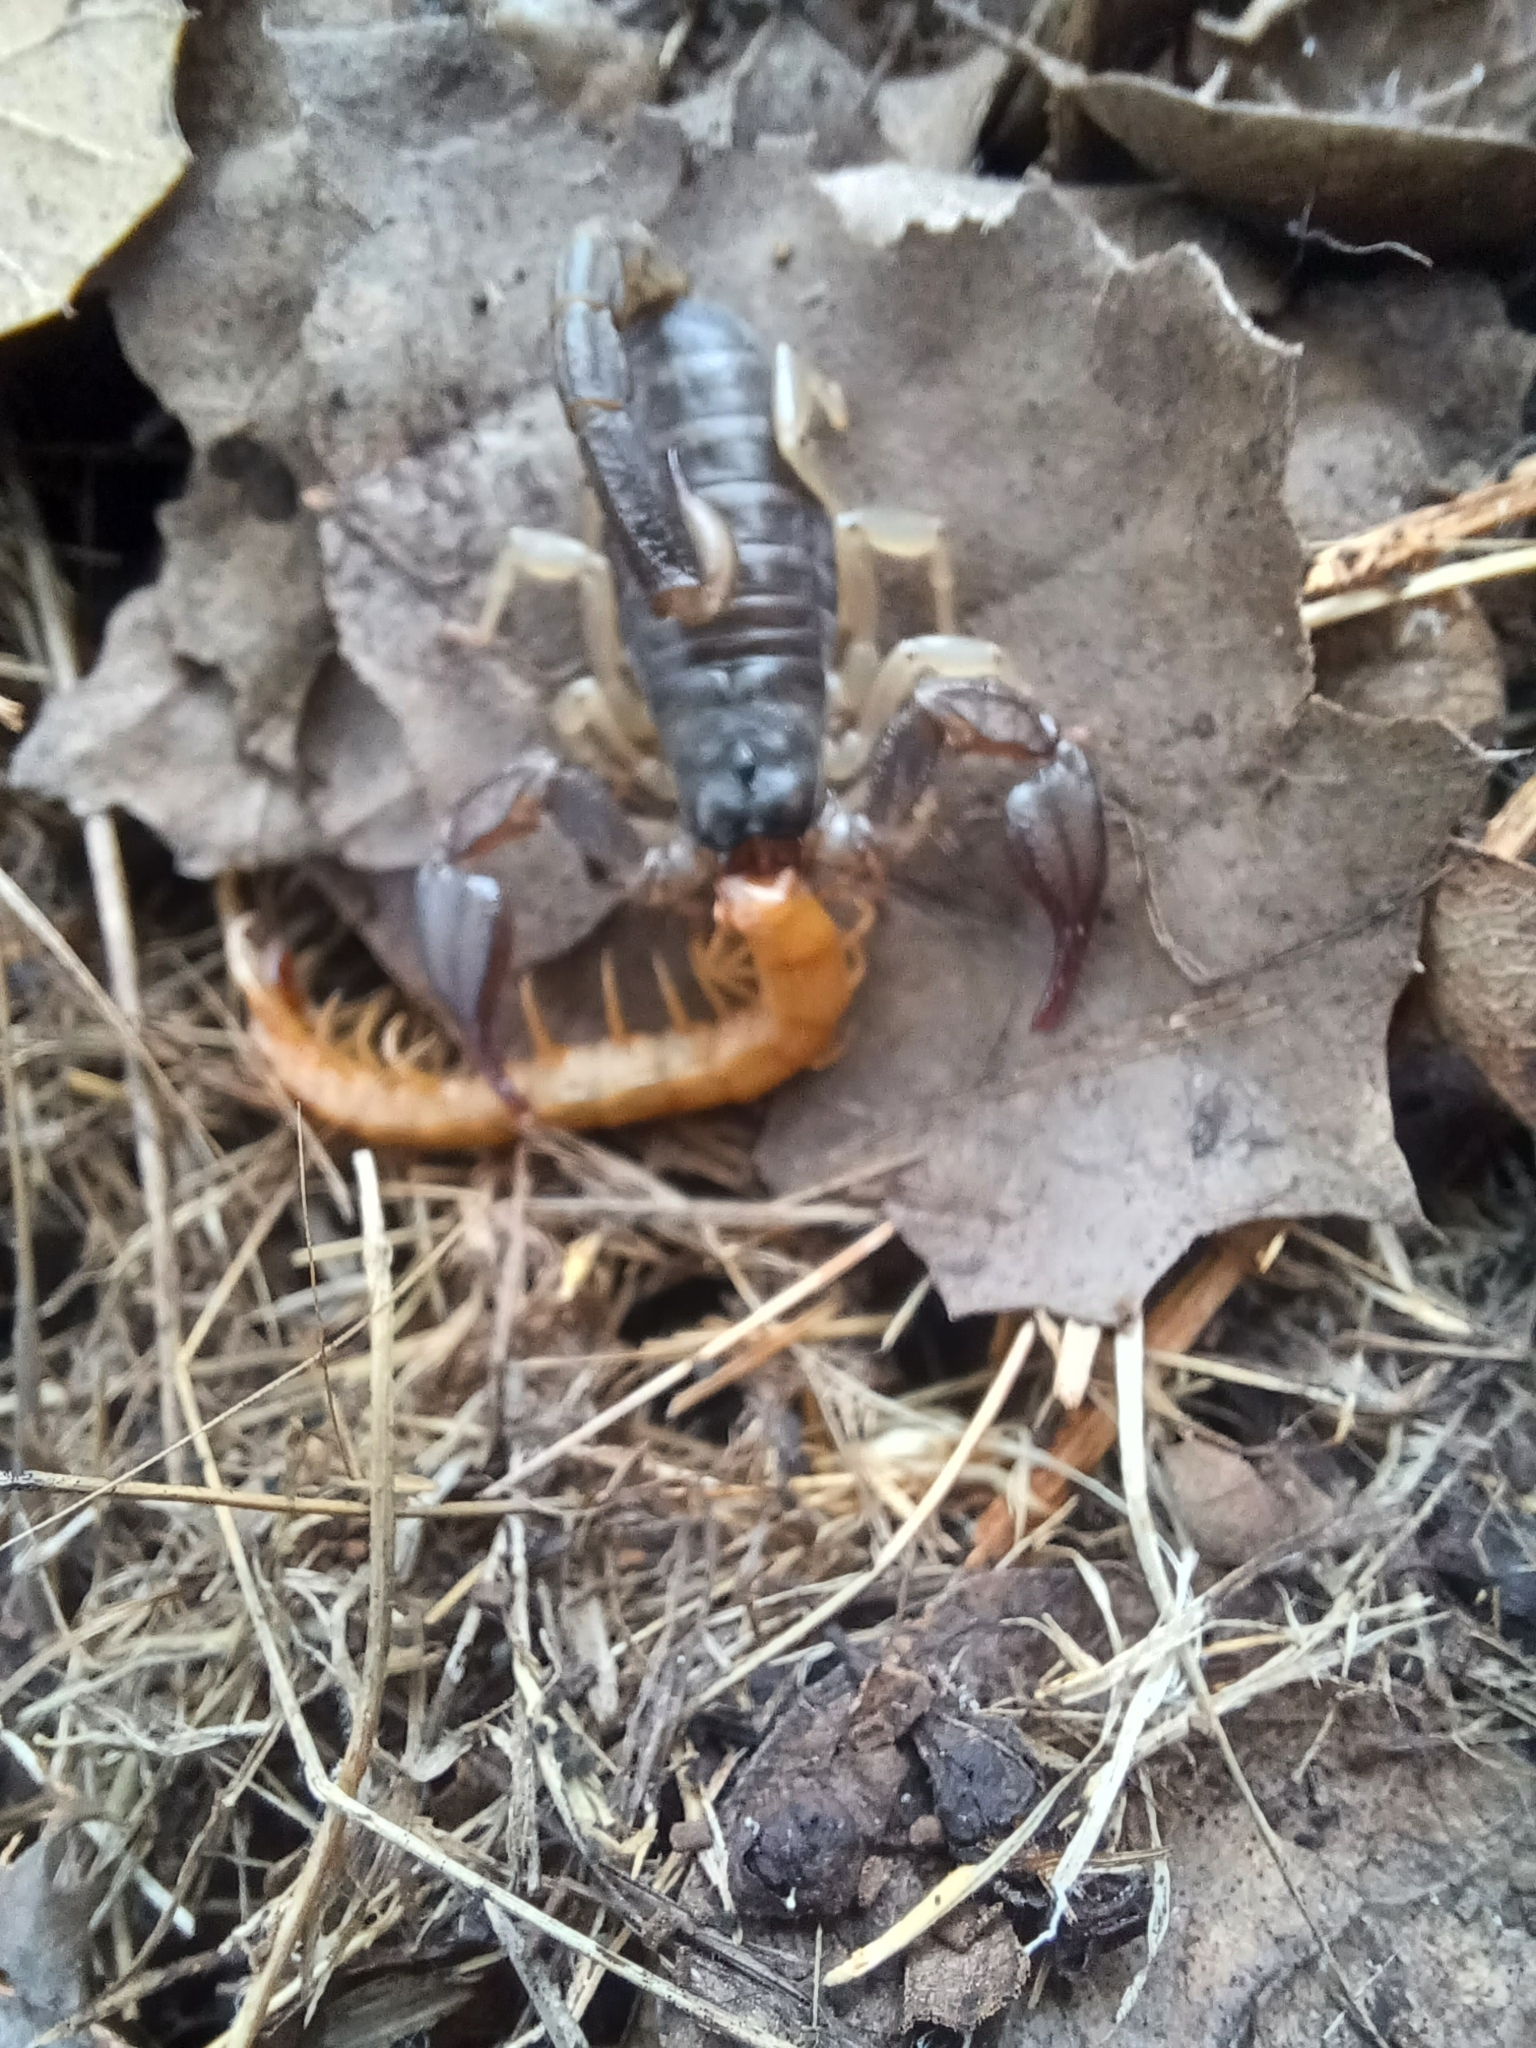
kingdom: Animalia
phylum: Arthropoda
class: Arachnida
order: Scorpiones
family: Chactidae
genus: Uroctonus
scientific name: Uroctonus mordax
